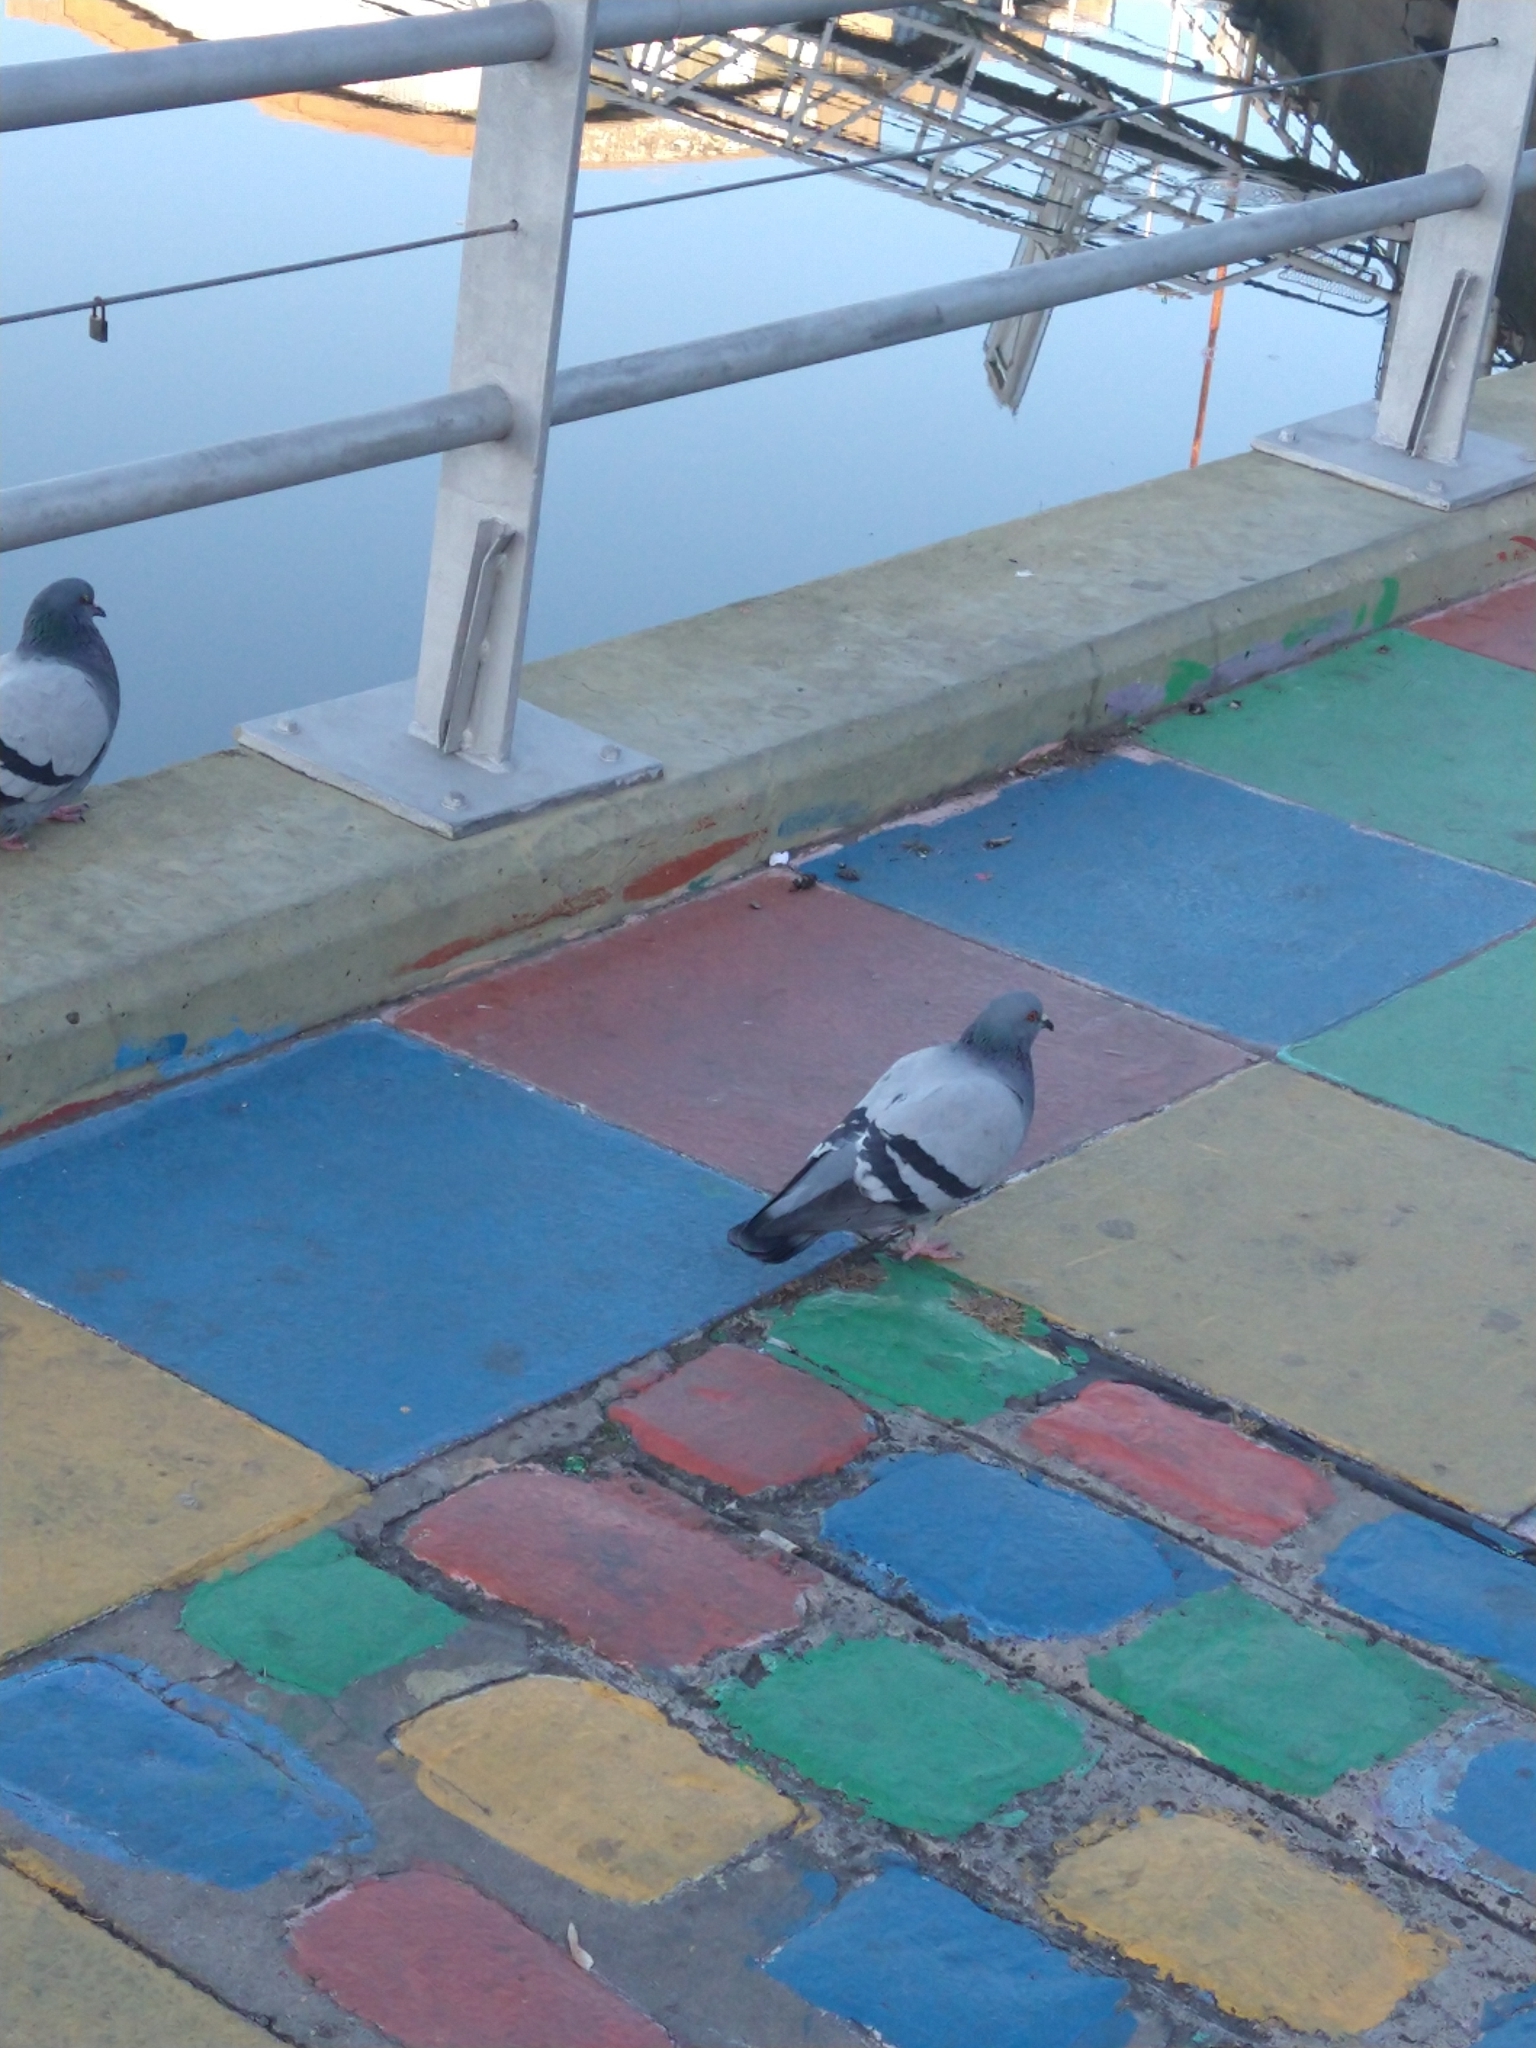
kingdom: Animalia
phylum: Chordata
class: Aves
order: Columbiformes
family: Columbidae
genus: Columba
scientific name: Columba livia
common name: Rock pigeon
